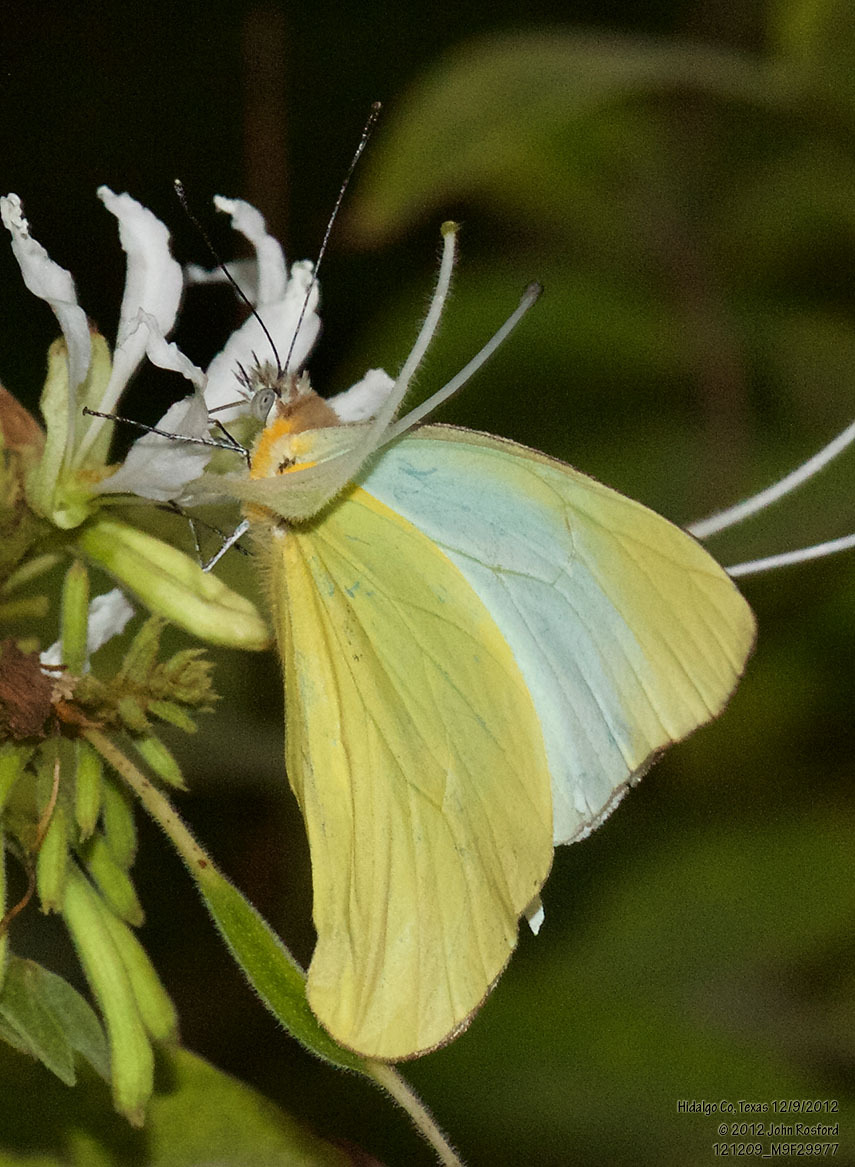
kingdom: Animalia
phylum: Arthropoda
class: Insecta
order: Lepidoptera
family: Pieridae
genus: Melete
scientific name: Melete lycimnia
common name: Common melwhite
